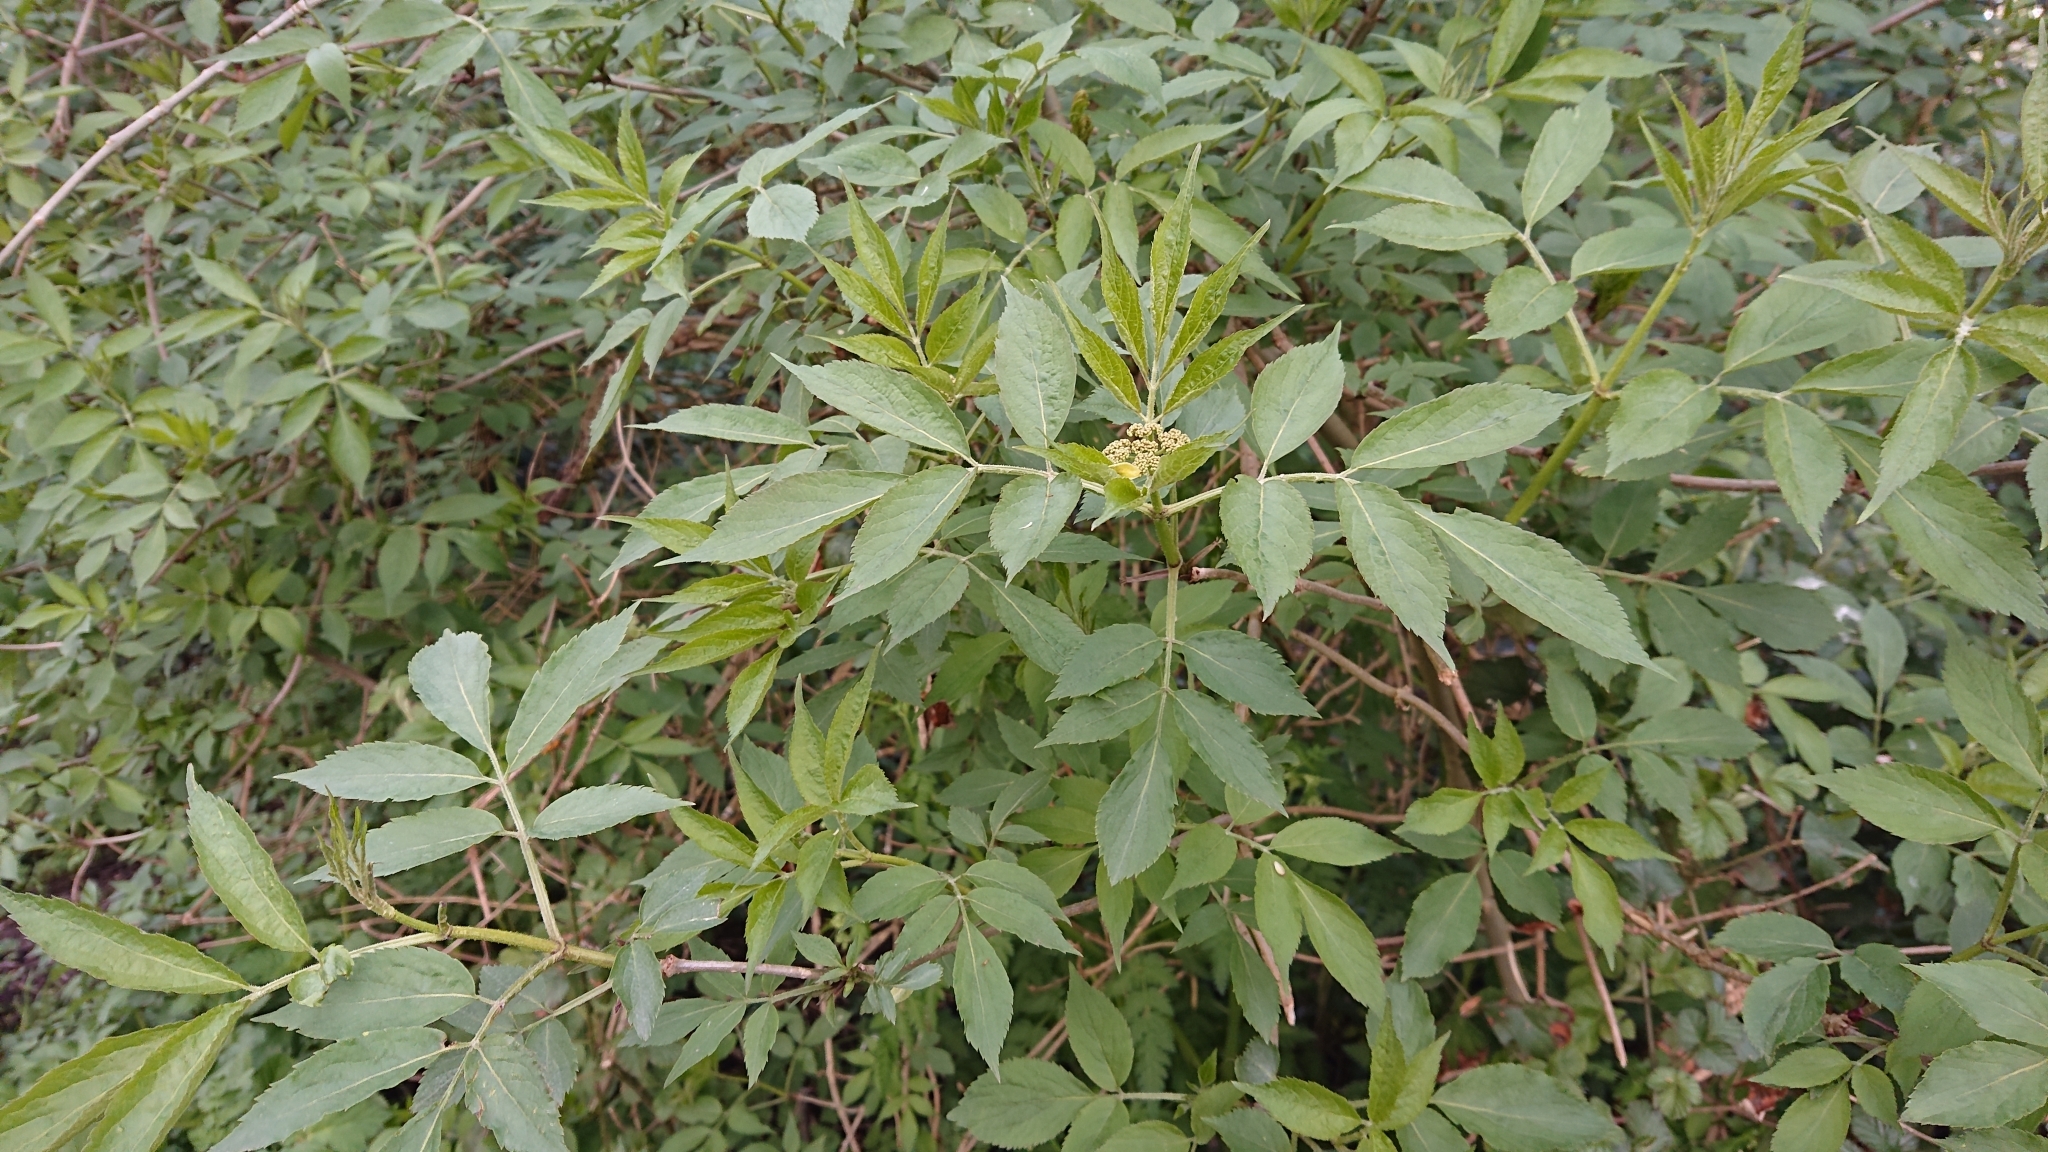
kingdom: Plantae
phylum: Tracheophyta
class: Magnoliopsida
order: Dipsacales
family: Viburnaceae
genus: Sambucus
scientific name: Sambucus nigra
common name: Elder
